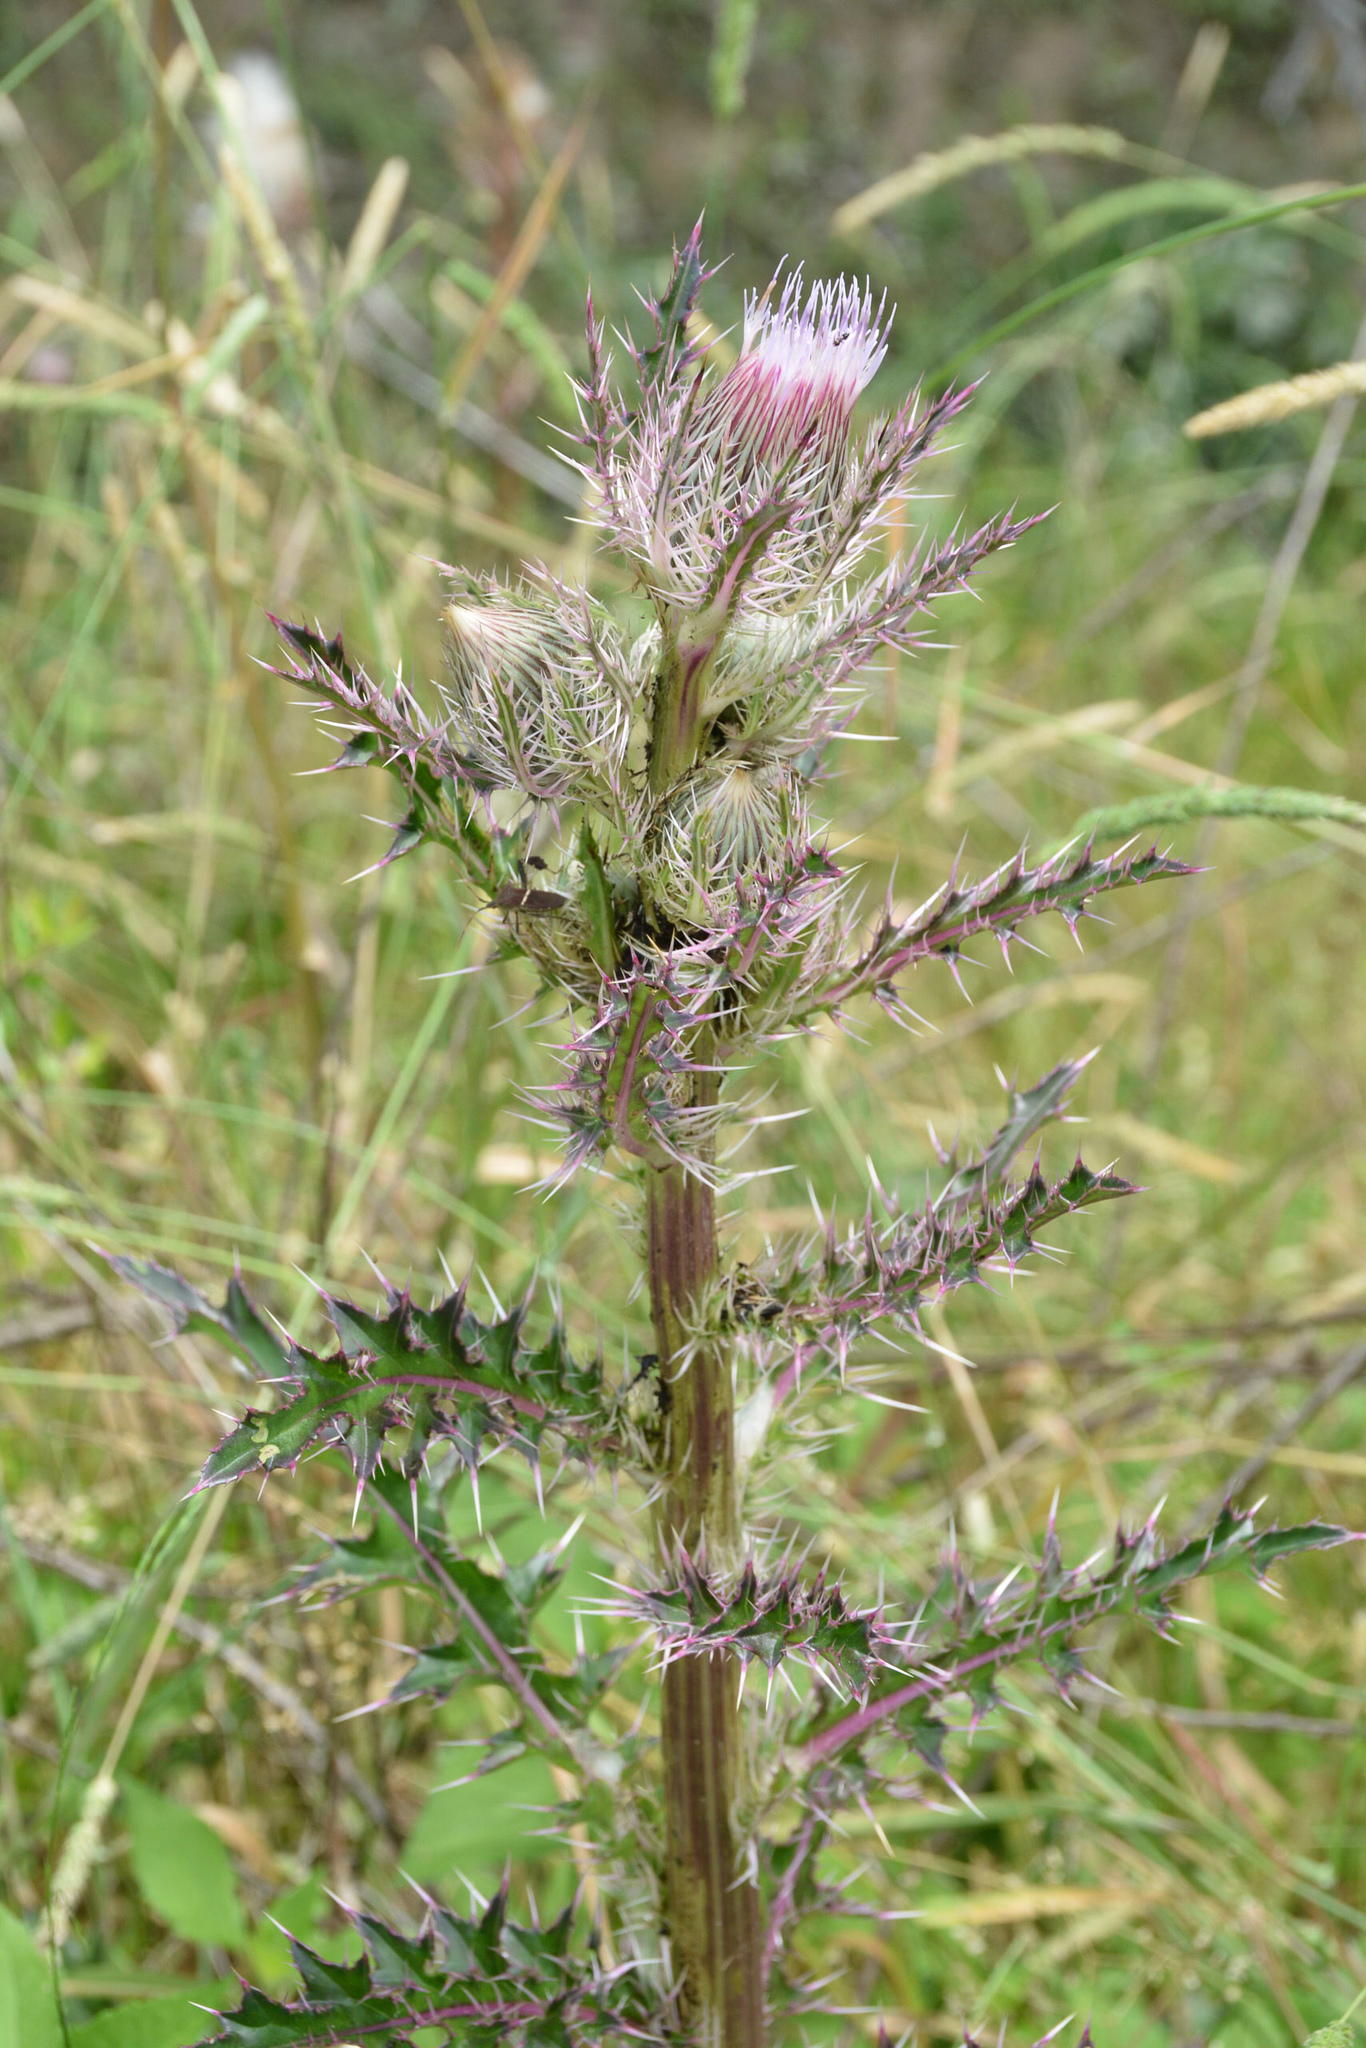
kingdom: Plantae
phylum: Tracheophyta
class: Magnoliopsida
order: Asterales
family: Asteraceae
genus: Cirsium
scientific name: Cirsium horridulum
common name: Bristly thistle
